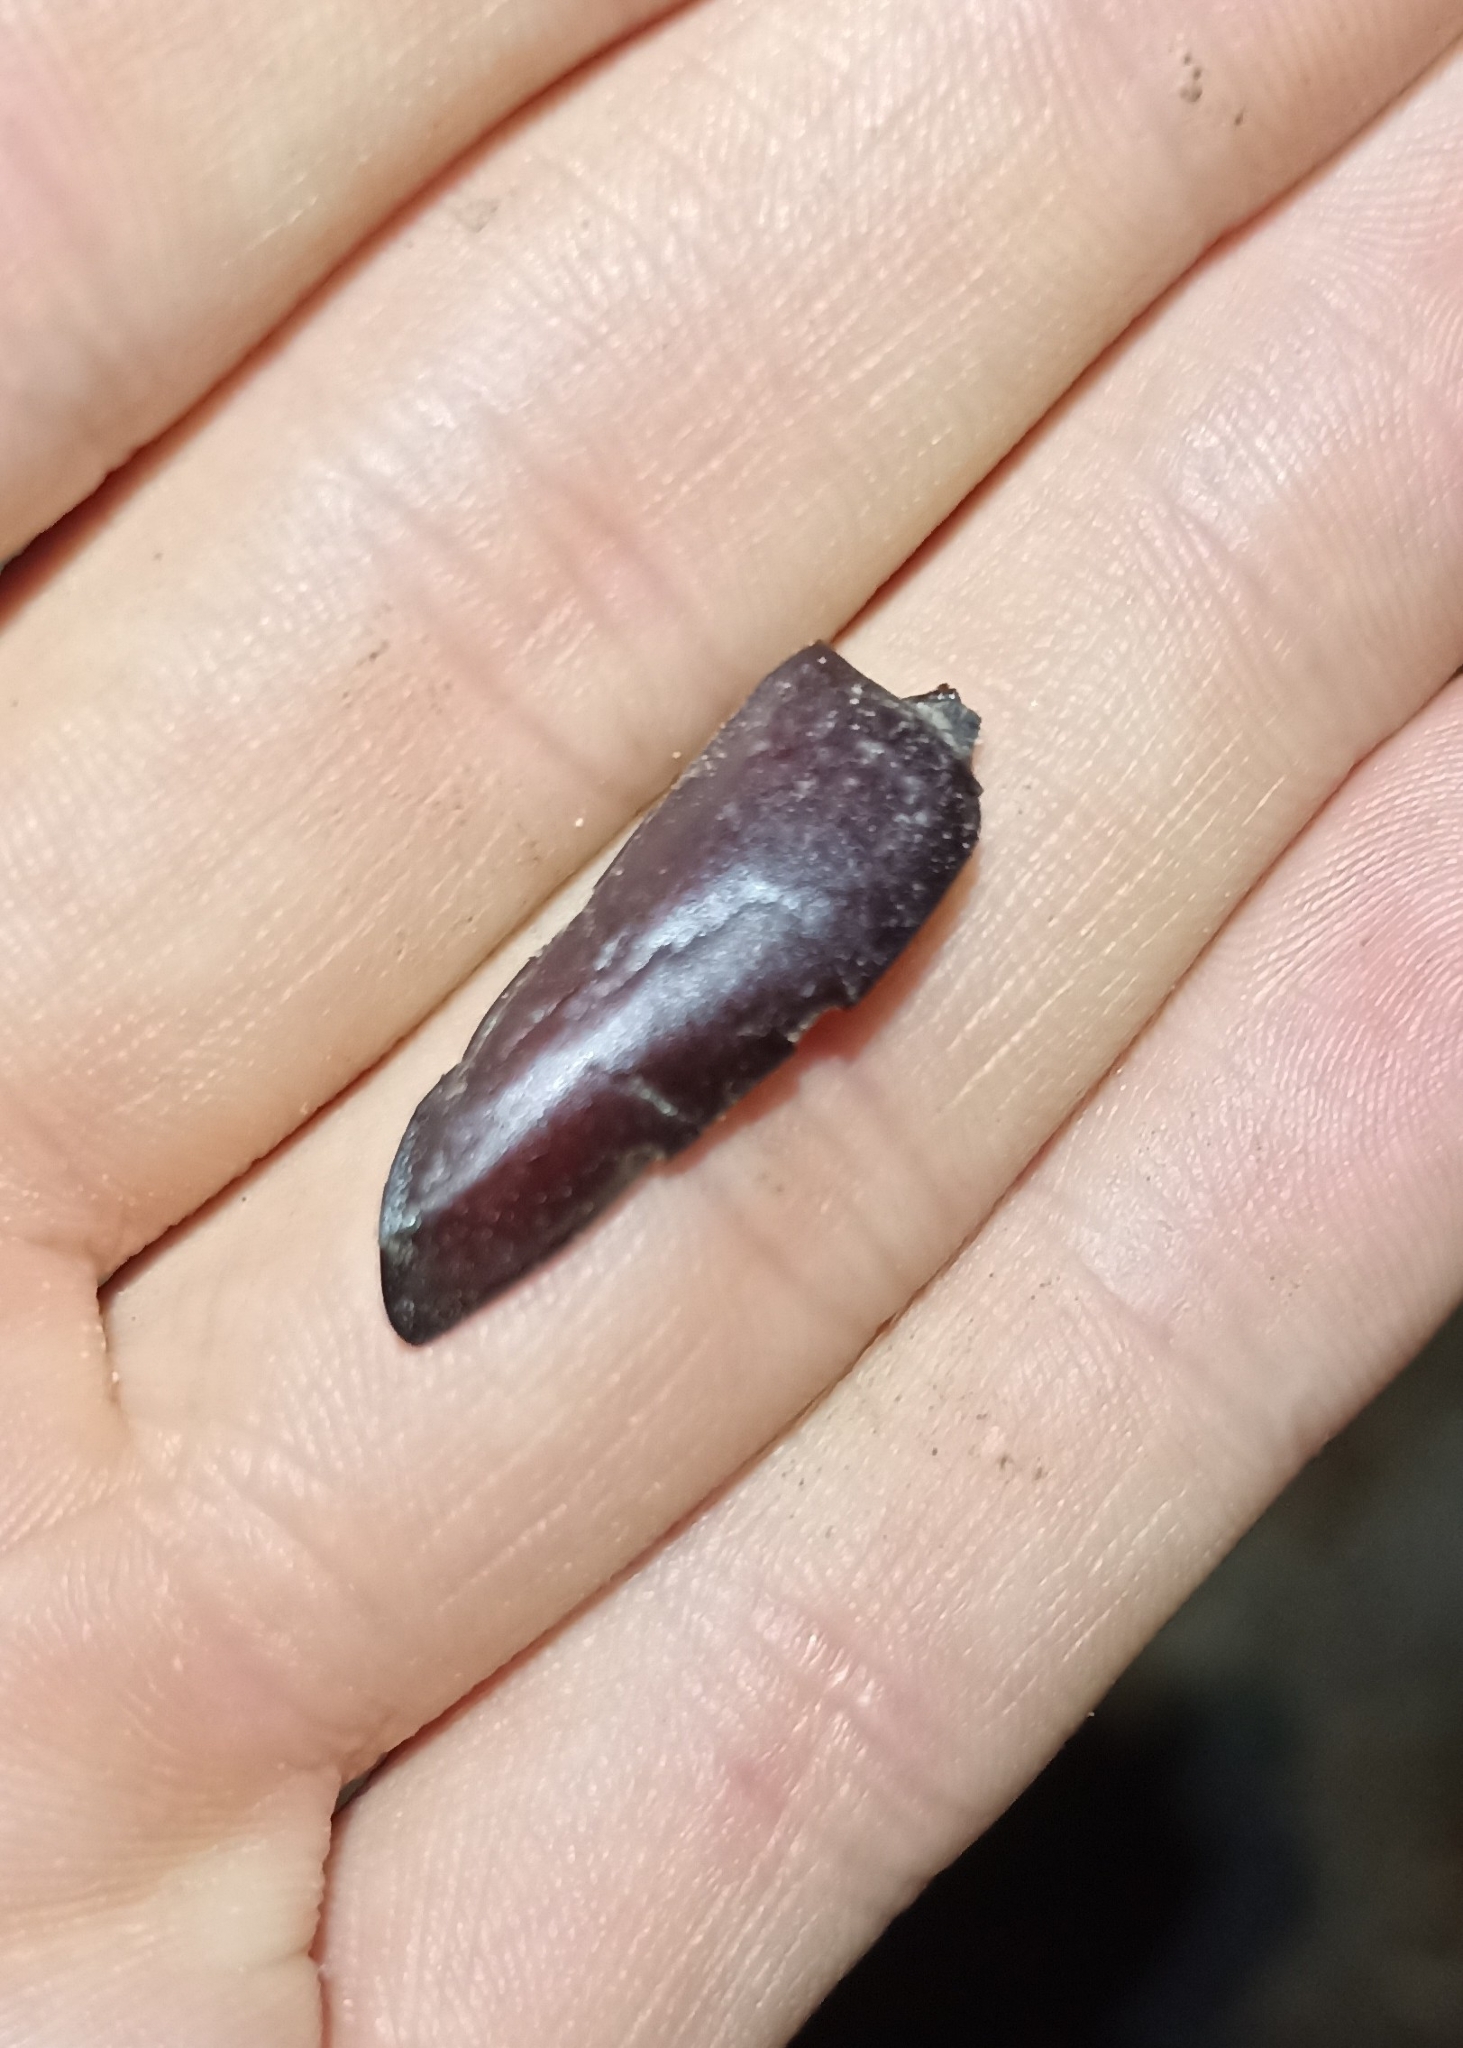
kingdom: Animalia
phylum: Arthropoda
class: Insecta
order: Coleoptera
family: Lucanidae
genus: Lucanus
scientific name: Lucanus cervus
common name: Stag beetle
